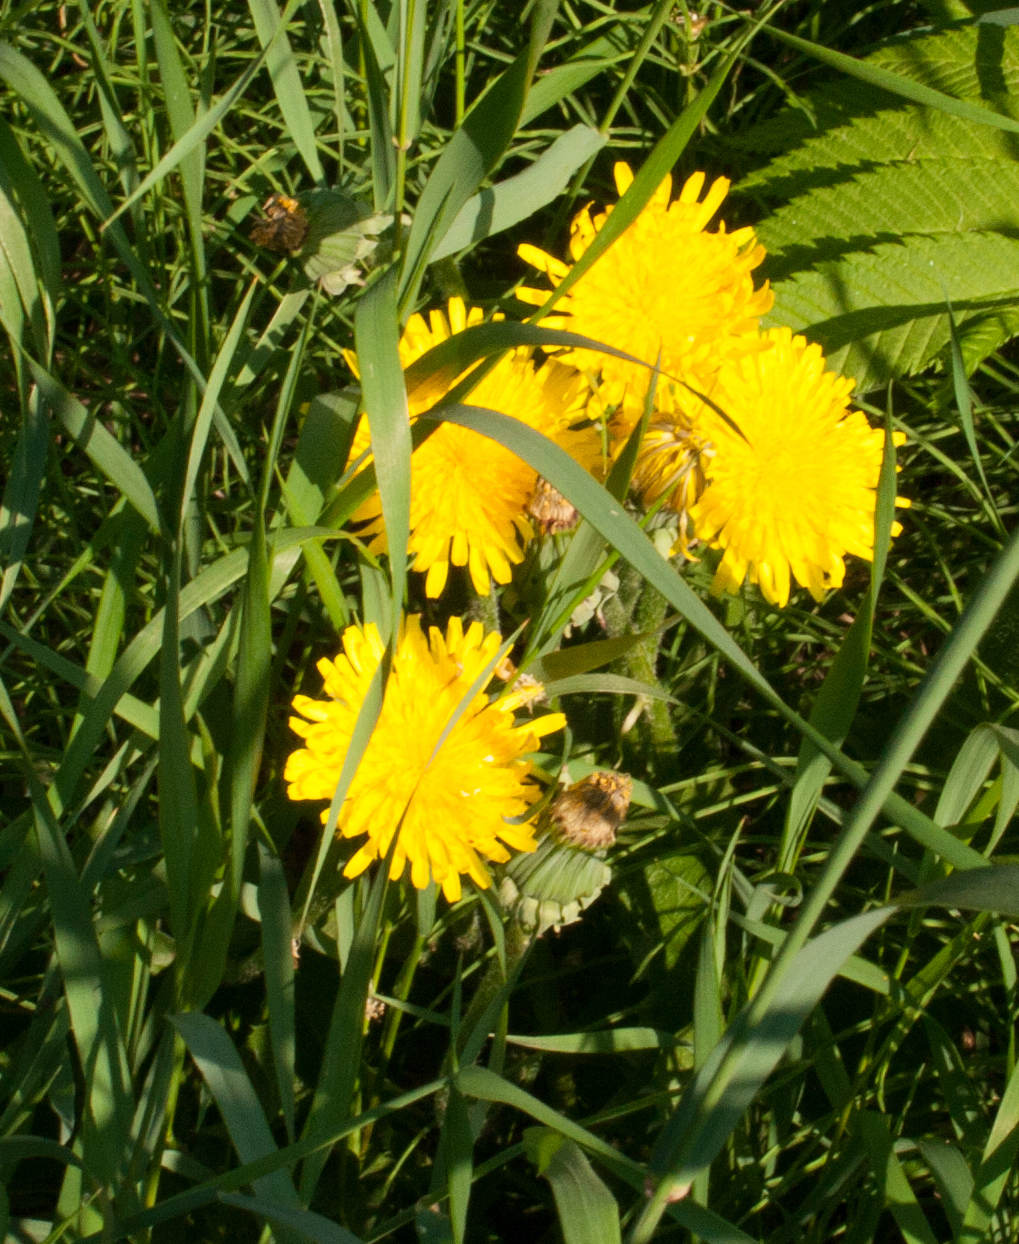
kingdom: Plantae
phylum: Tracheophyta
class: Magnoliopsida
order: Asterales
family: Asteraceae
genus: Taraxacum
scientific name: Taraxacum officinale
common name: Common dandelion
